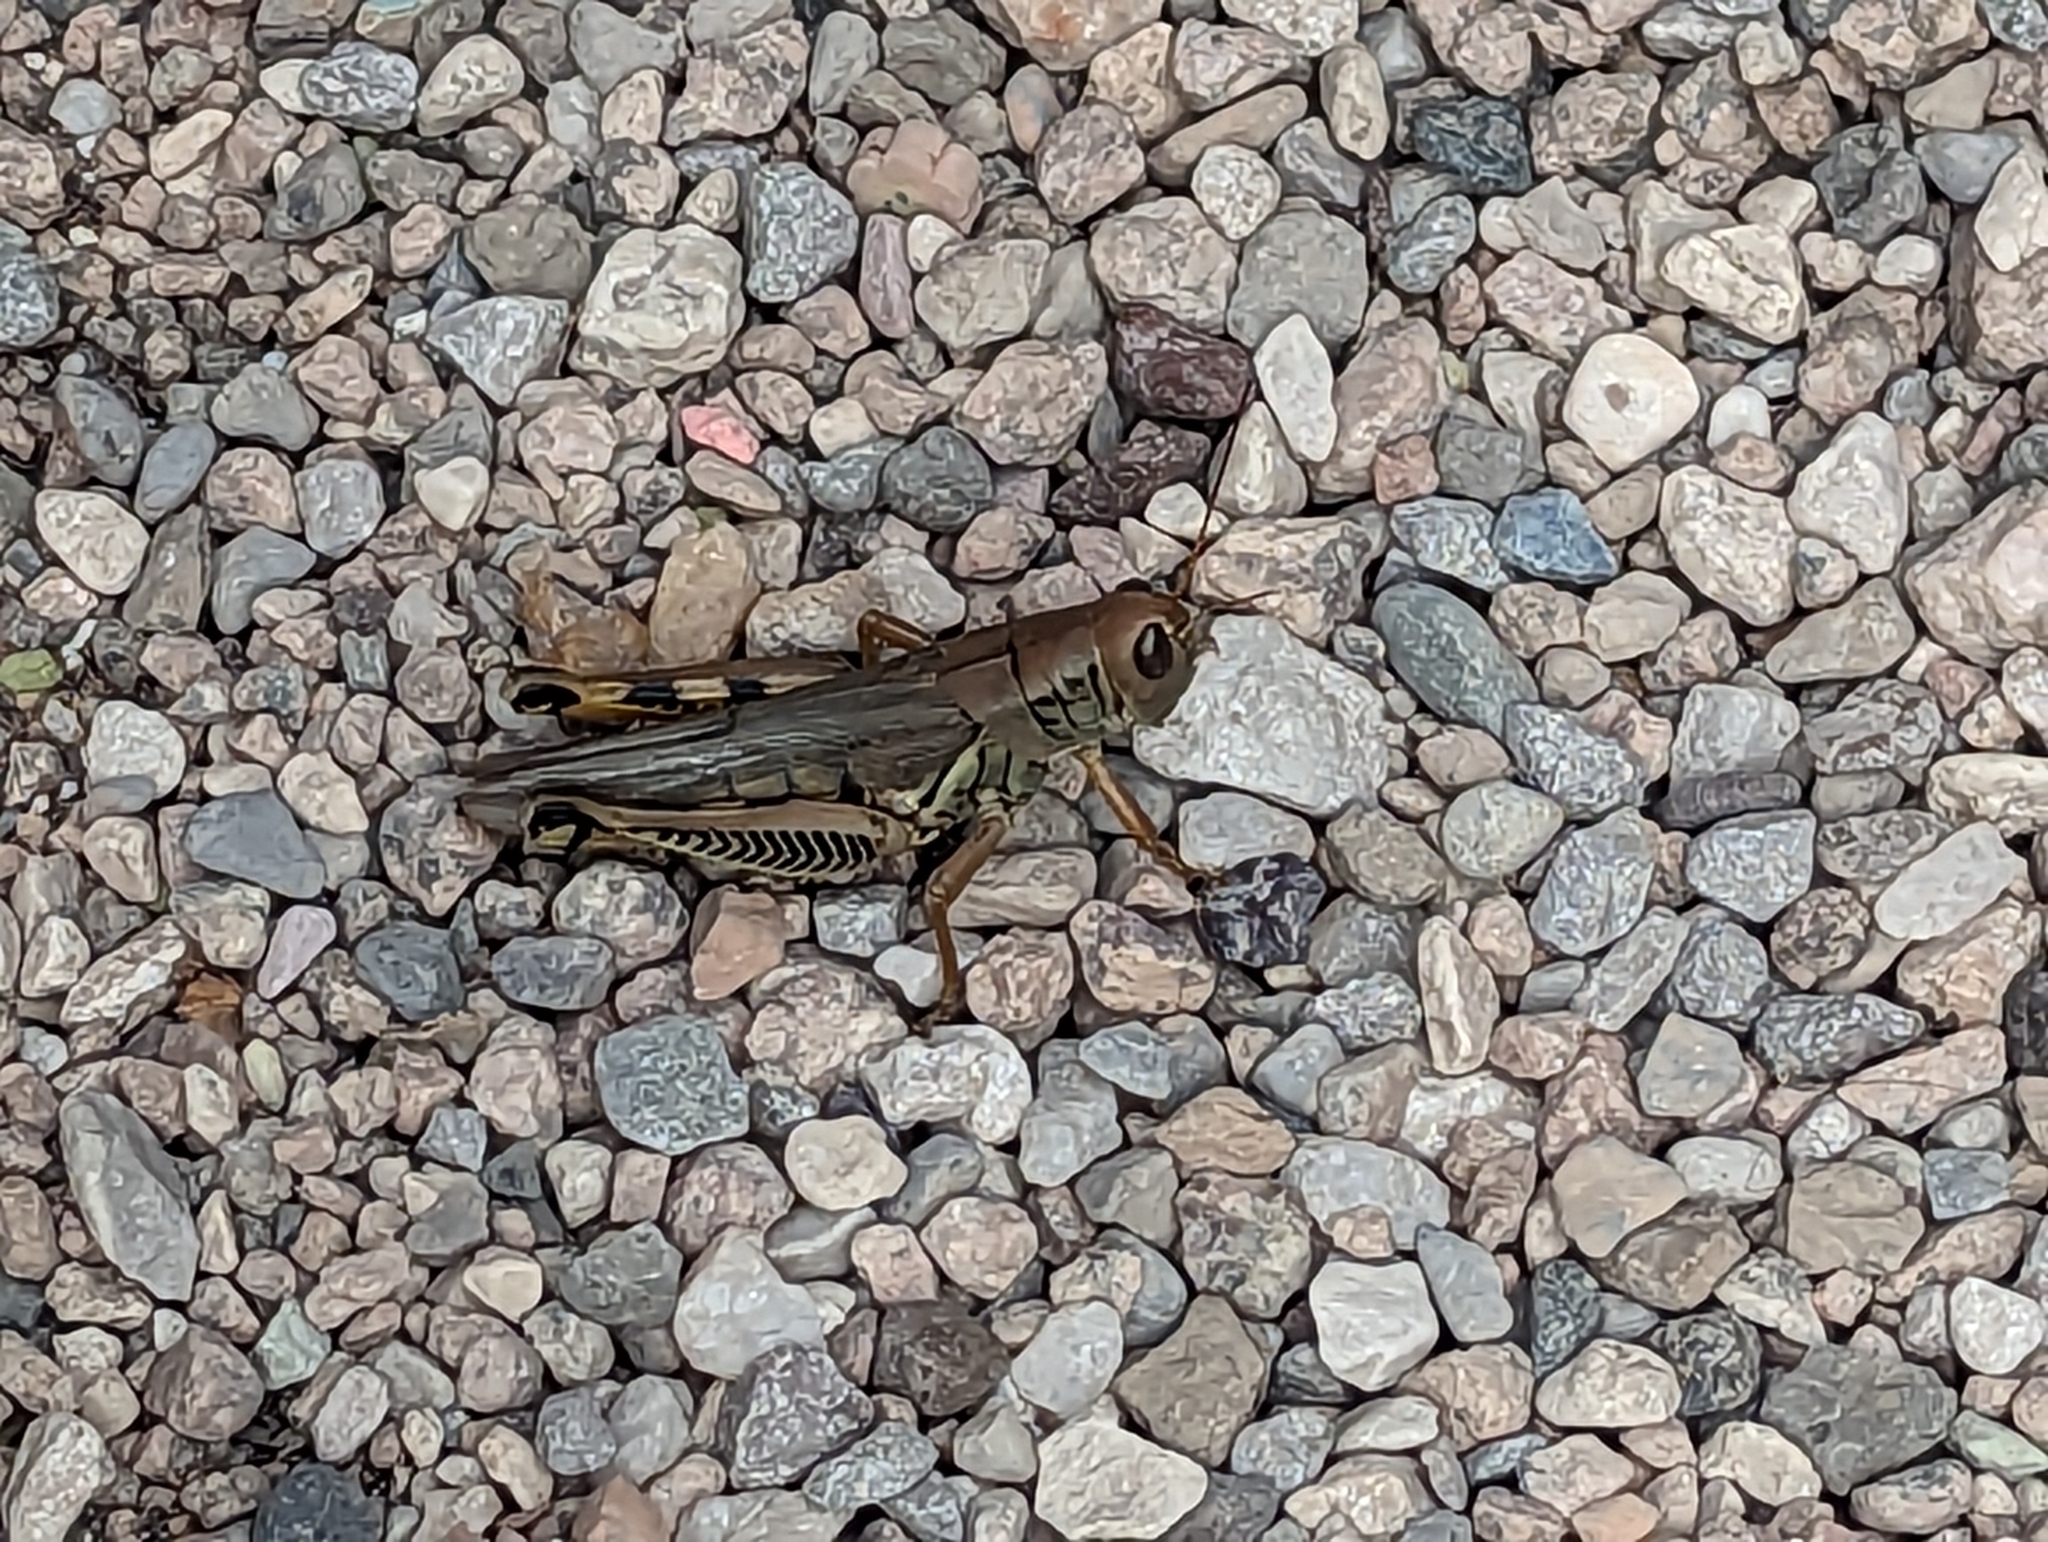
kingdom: Animalia
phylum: Arthropoda
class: Insecta
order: Orthoptera
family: Acrididae
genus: Melanoplus
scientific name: Melanoplus differentialis
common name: Differential grasshopper
